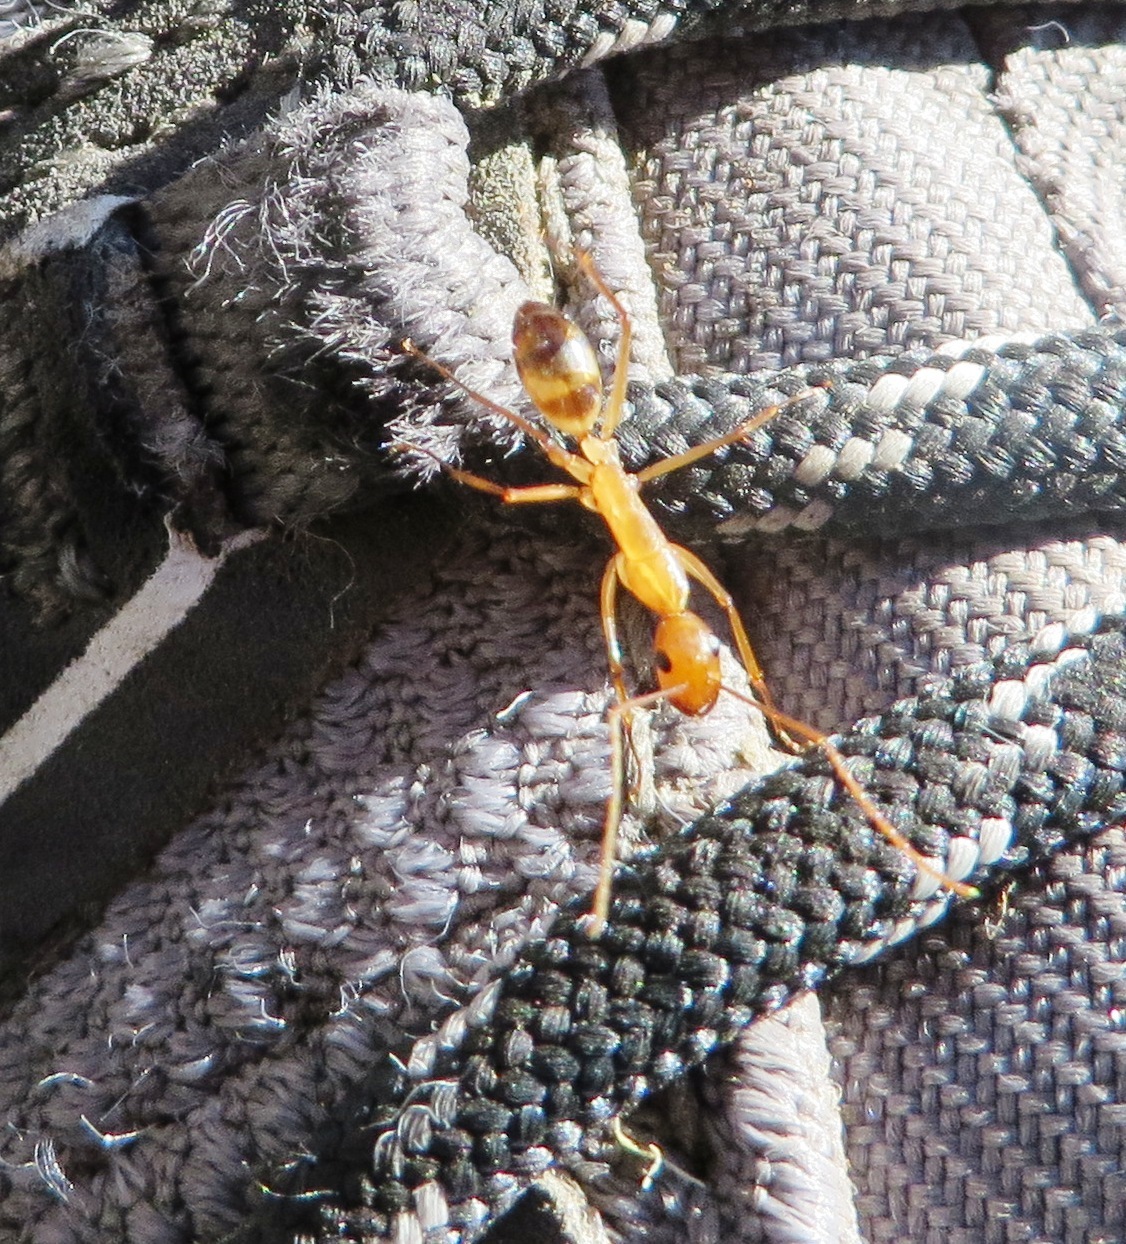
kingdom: Animalia
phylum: Arthropoda
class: Insecta
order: Hymenoptera
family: Formicidae
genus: Camponotus
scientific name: Camponotus importunus
